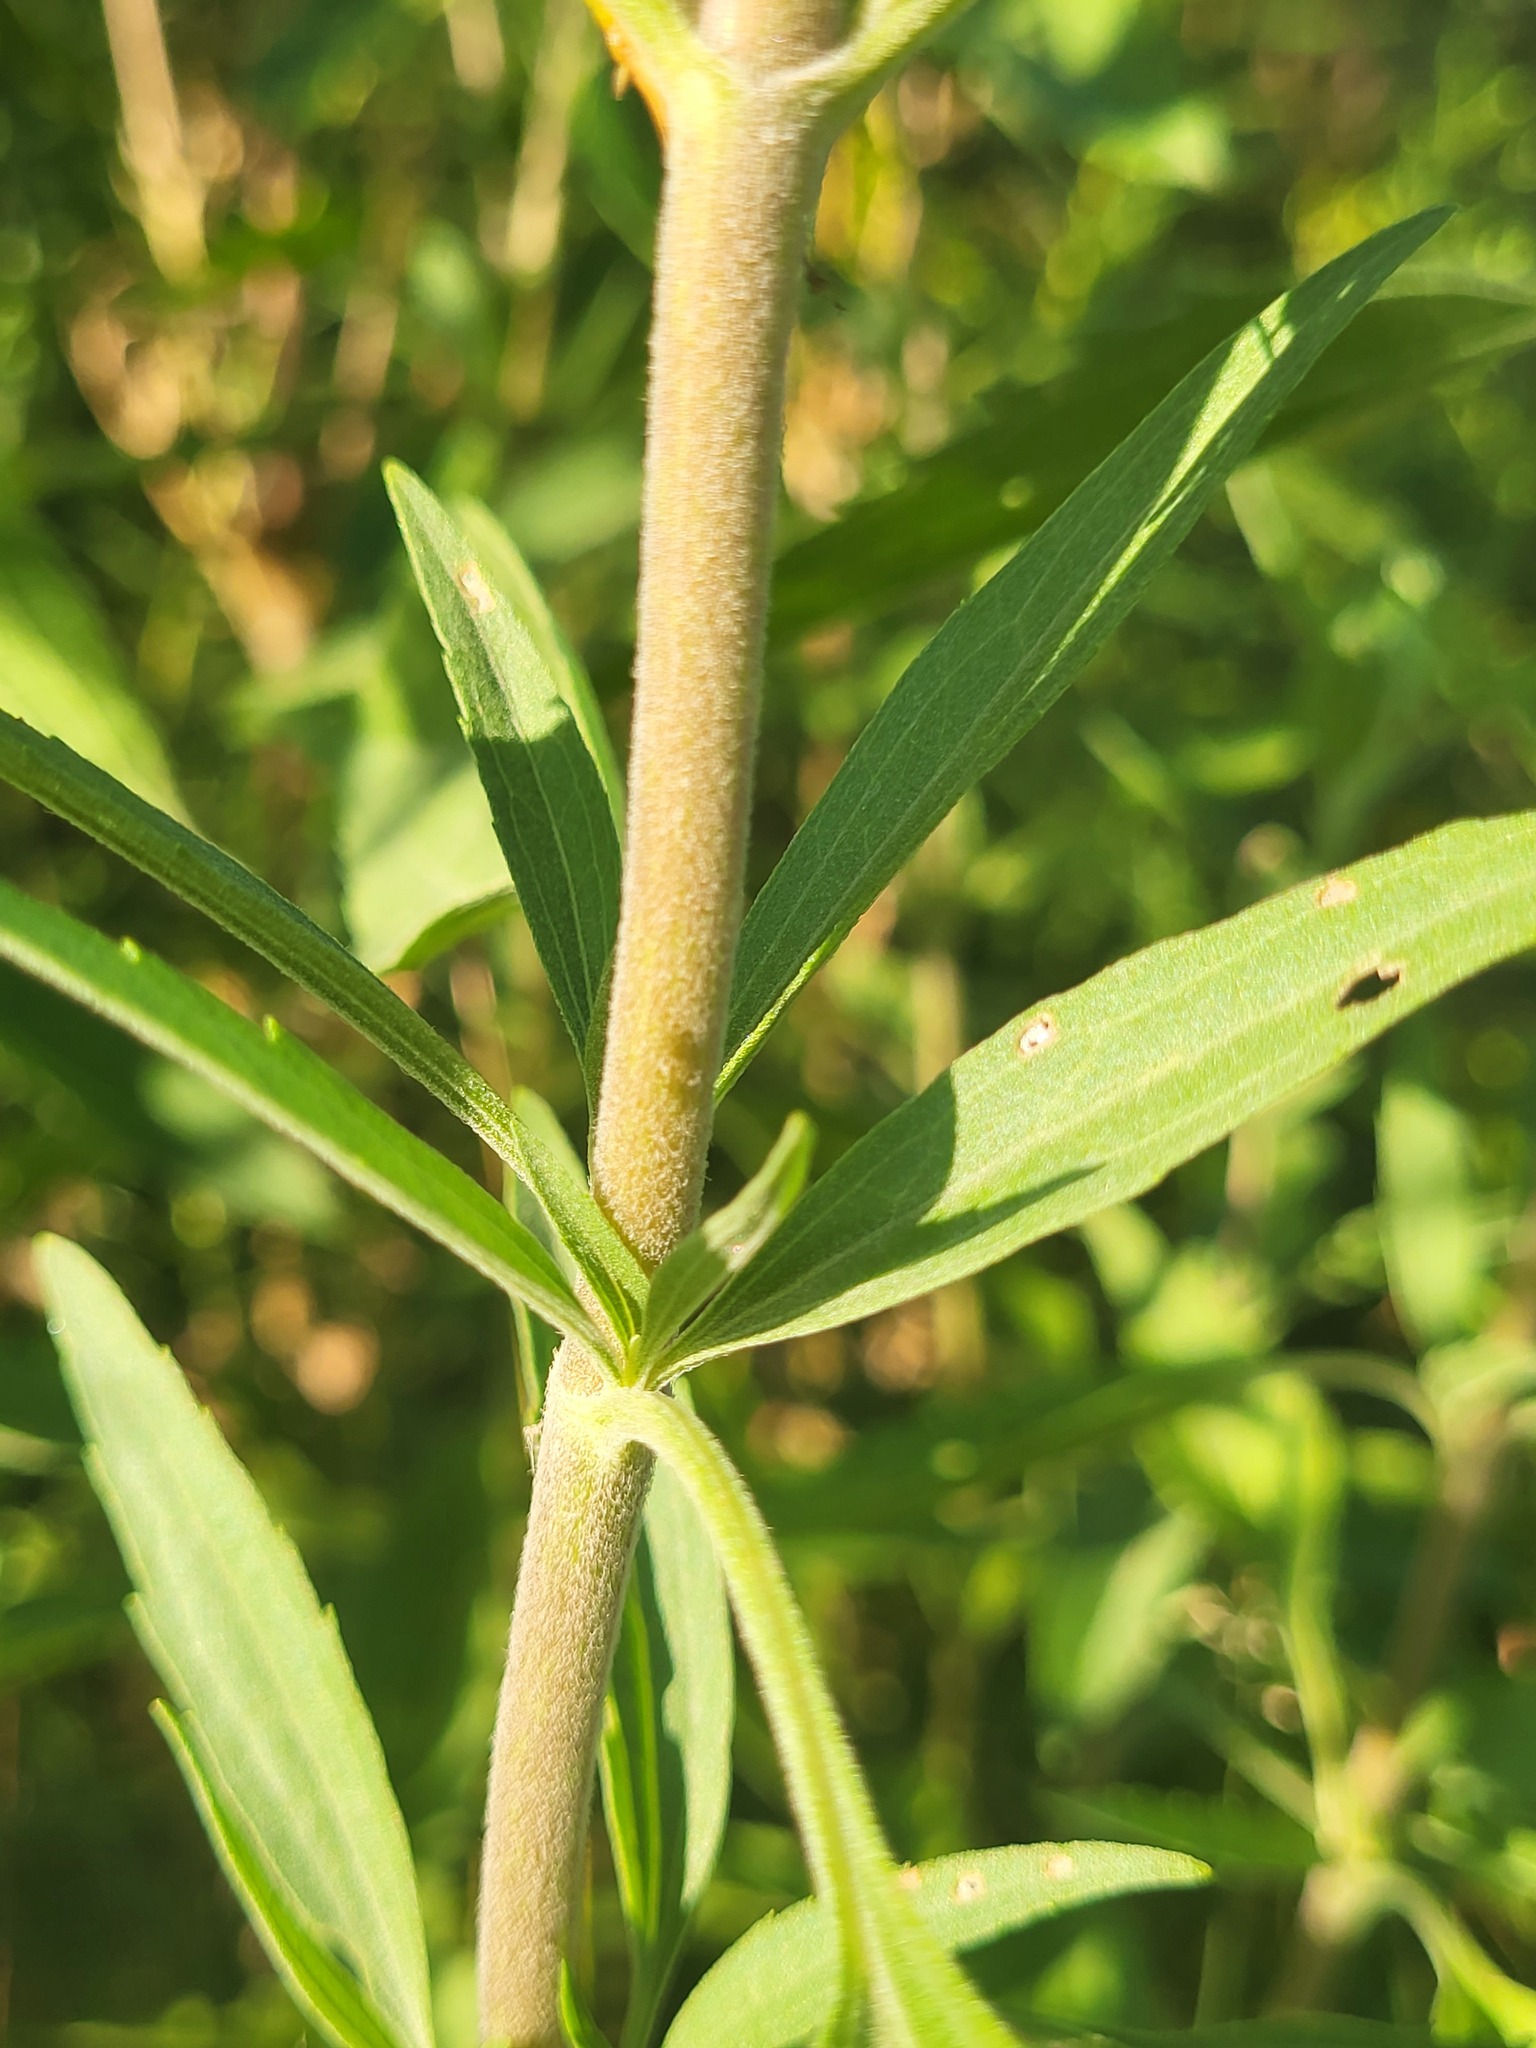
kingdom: Plantae
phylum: Tracheophyta
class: Magnoliopsida
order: Asterales
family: Asteraceae
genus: Eupatorium
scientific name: Eupatorium altissimum
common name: Tall thoroughwort
